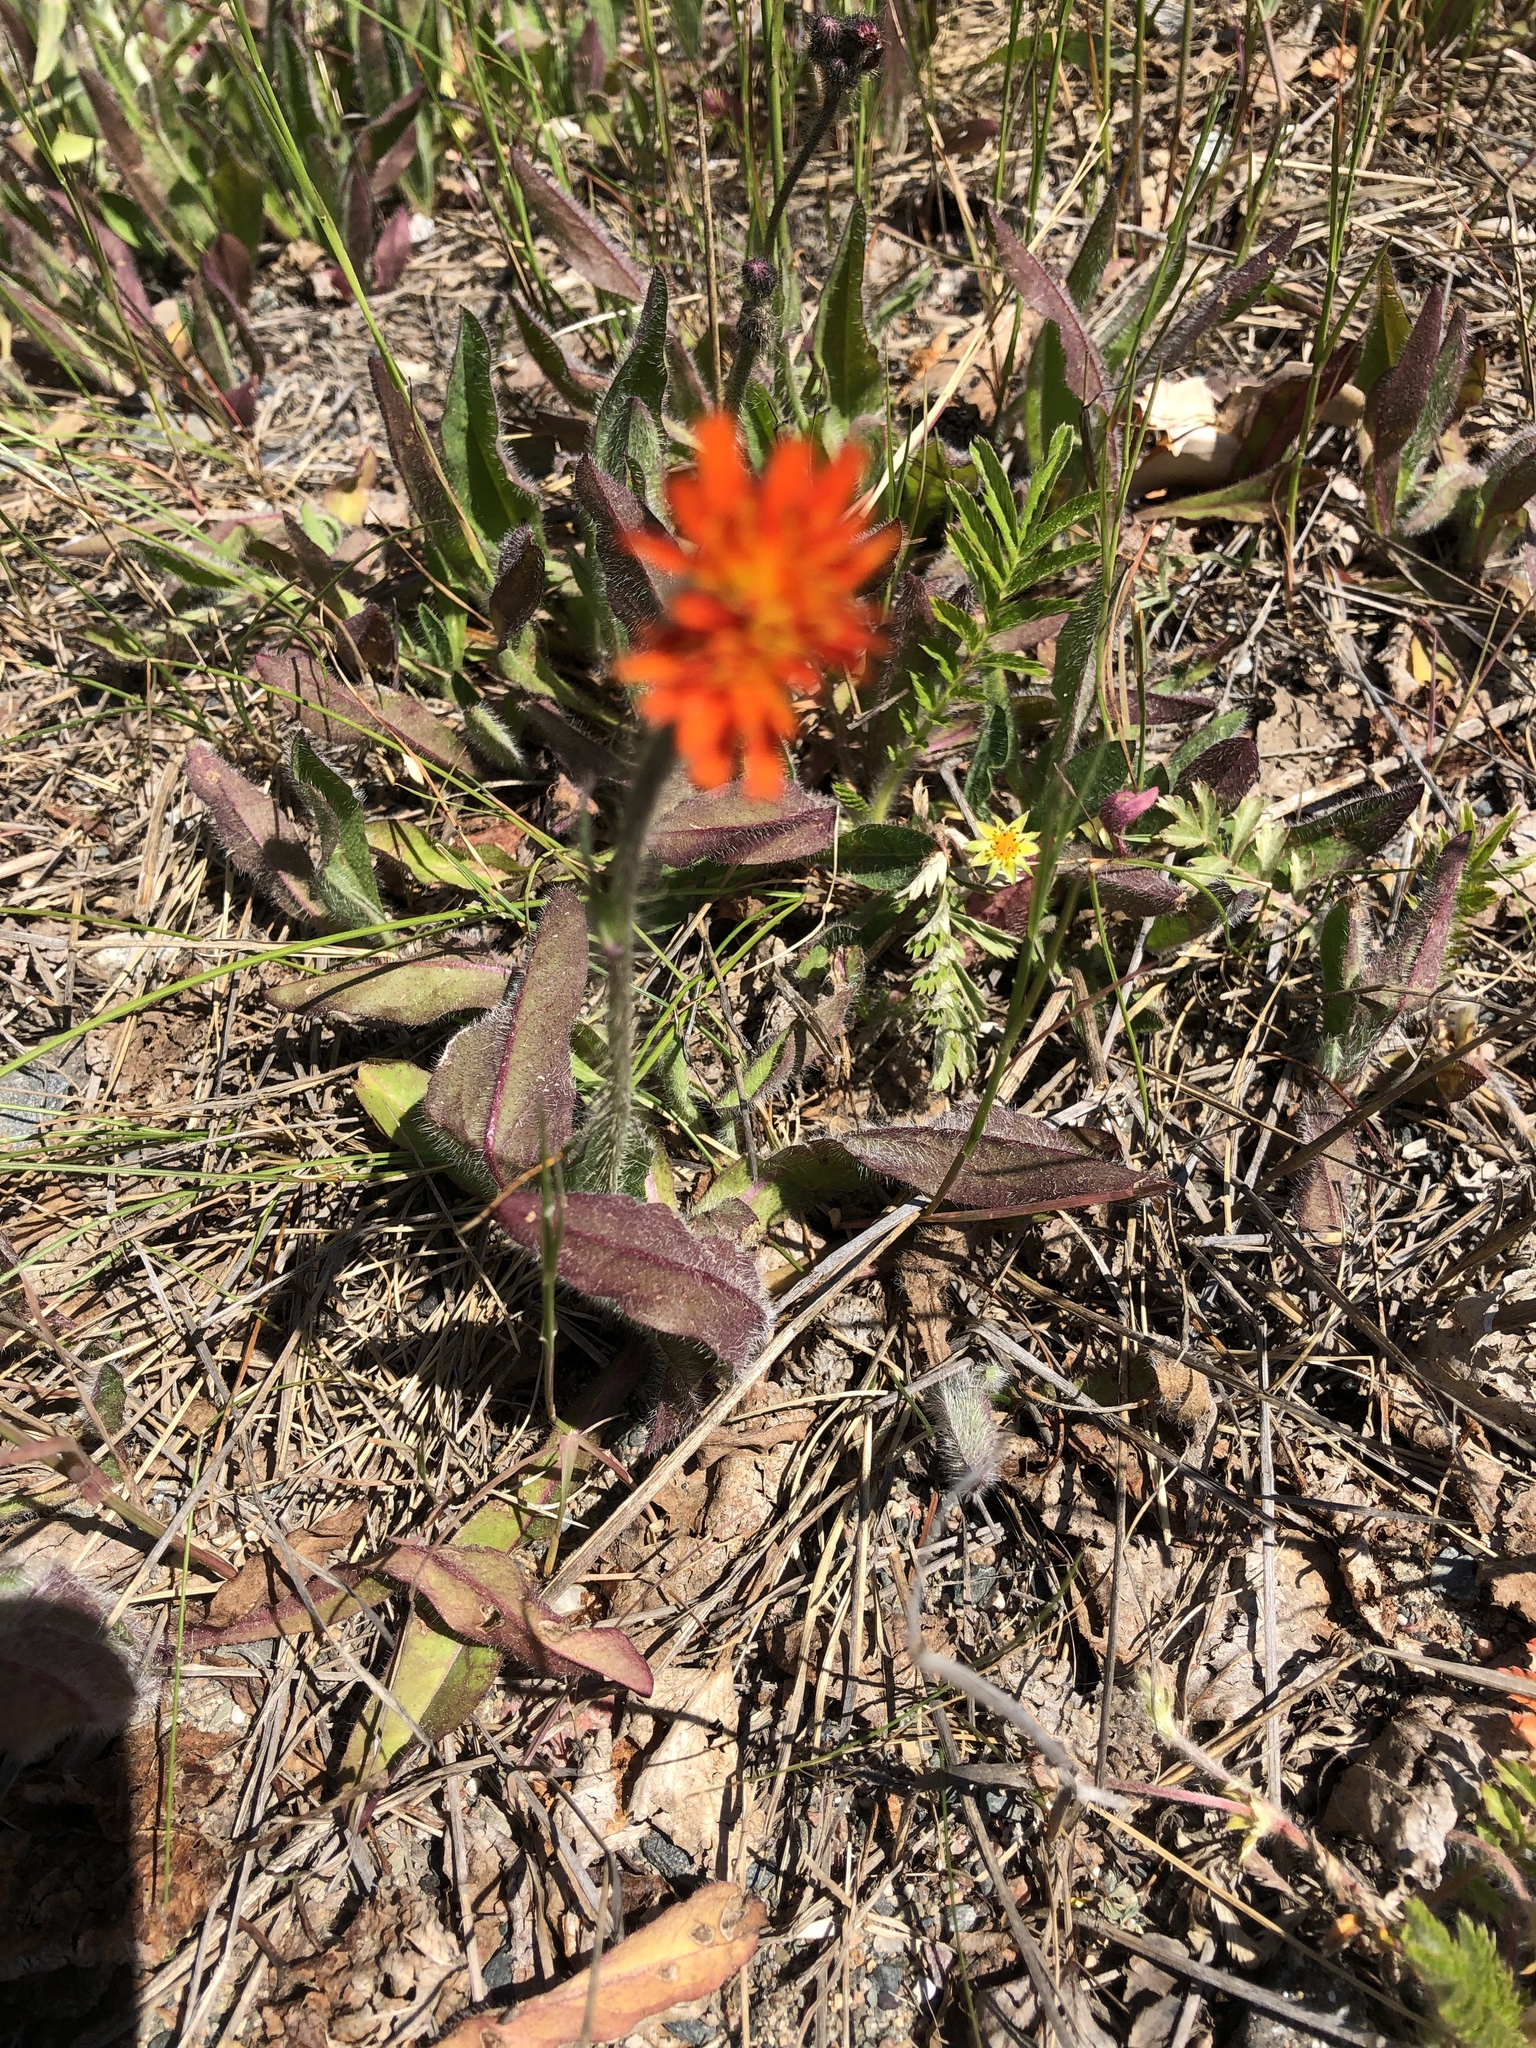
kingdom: Plantae
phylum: Tracheophyta
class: Magnoliopsida
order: Asterales
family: Asteraceae
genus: Pilosella
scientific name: Pilosella aurantiaca
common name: Fox-and-cubs
